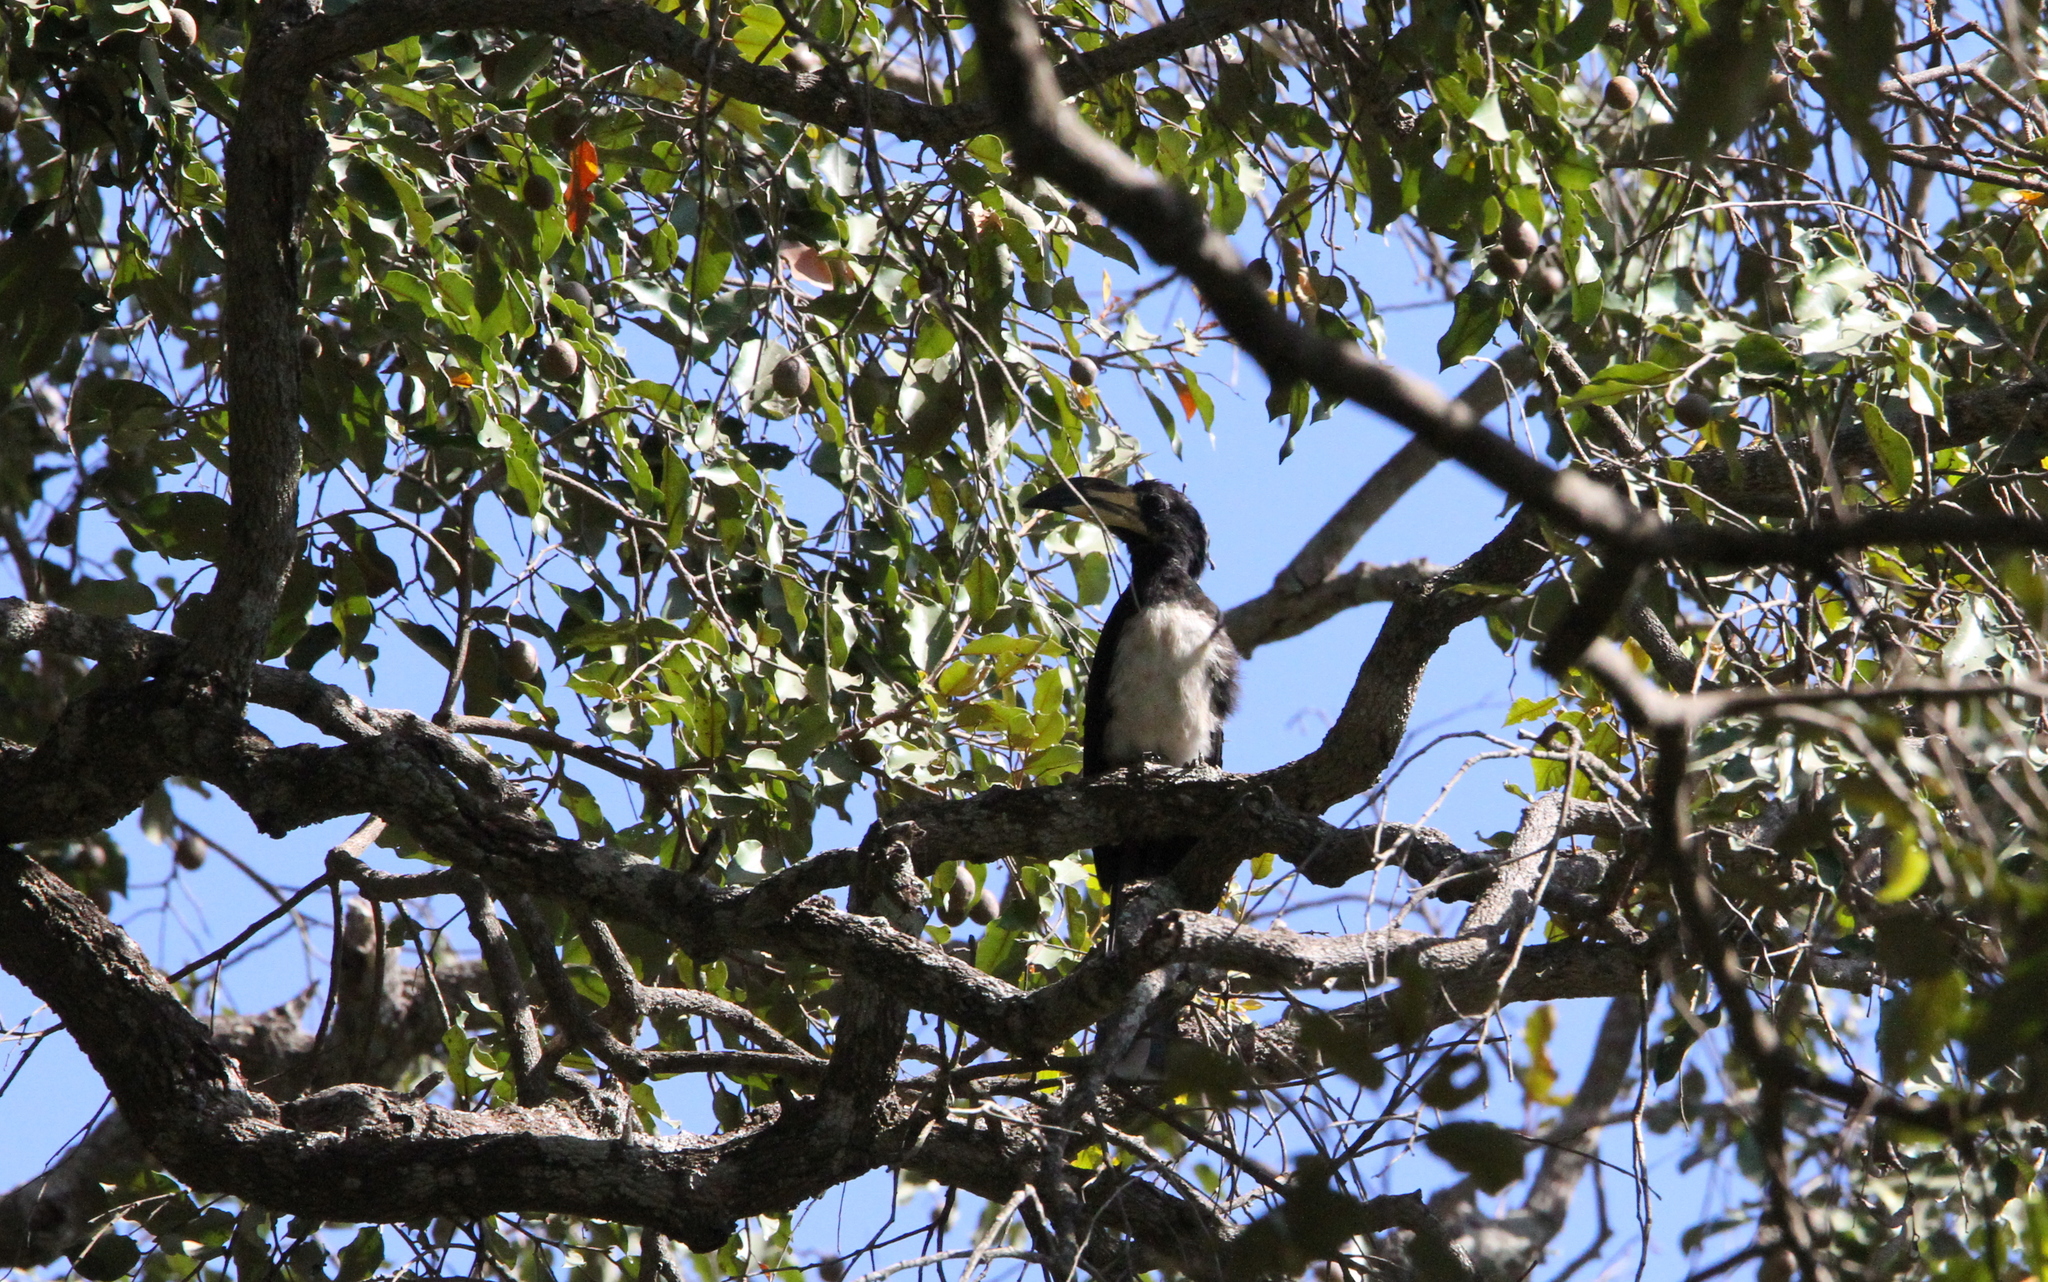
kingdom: Animalia
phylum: Chordata
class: Aves
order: Bucerotiformes
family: Bucerotidae
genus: Lophoceros
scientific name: Lophoceros fasciatus
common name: African pied hornbill
